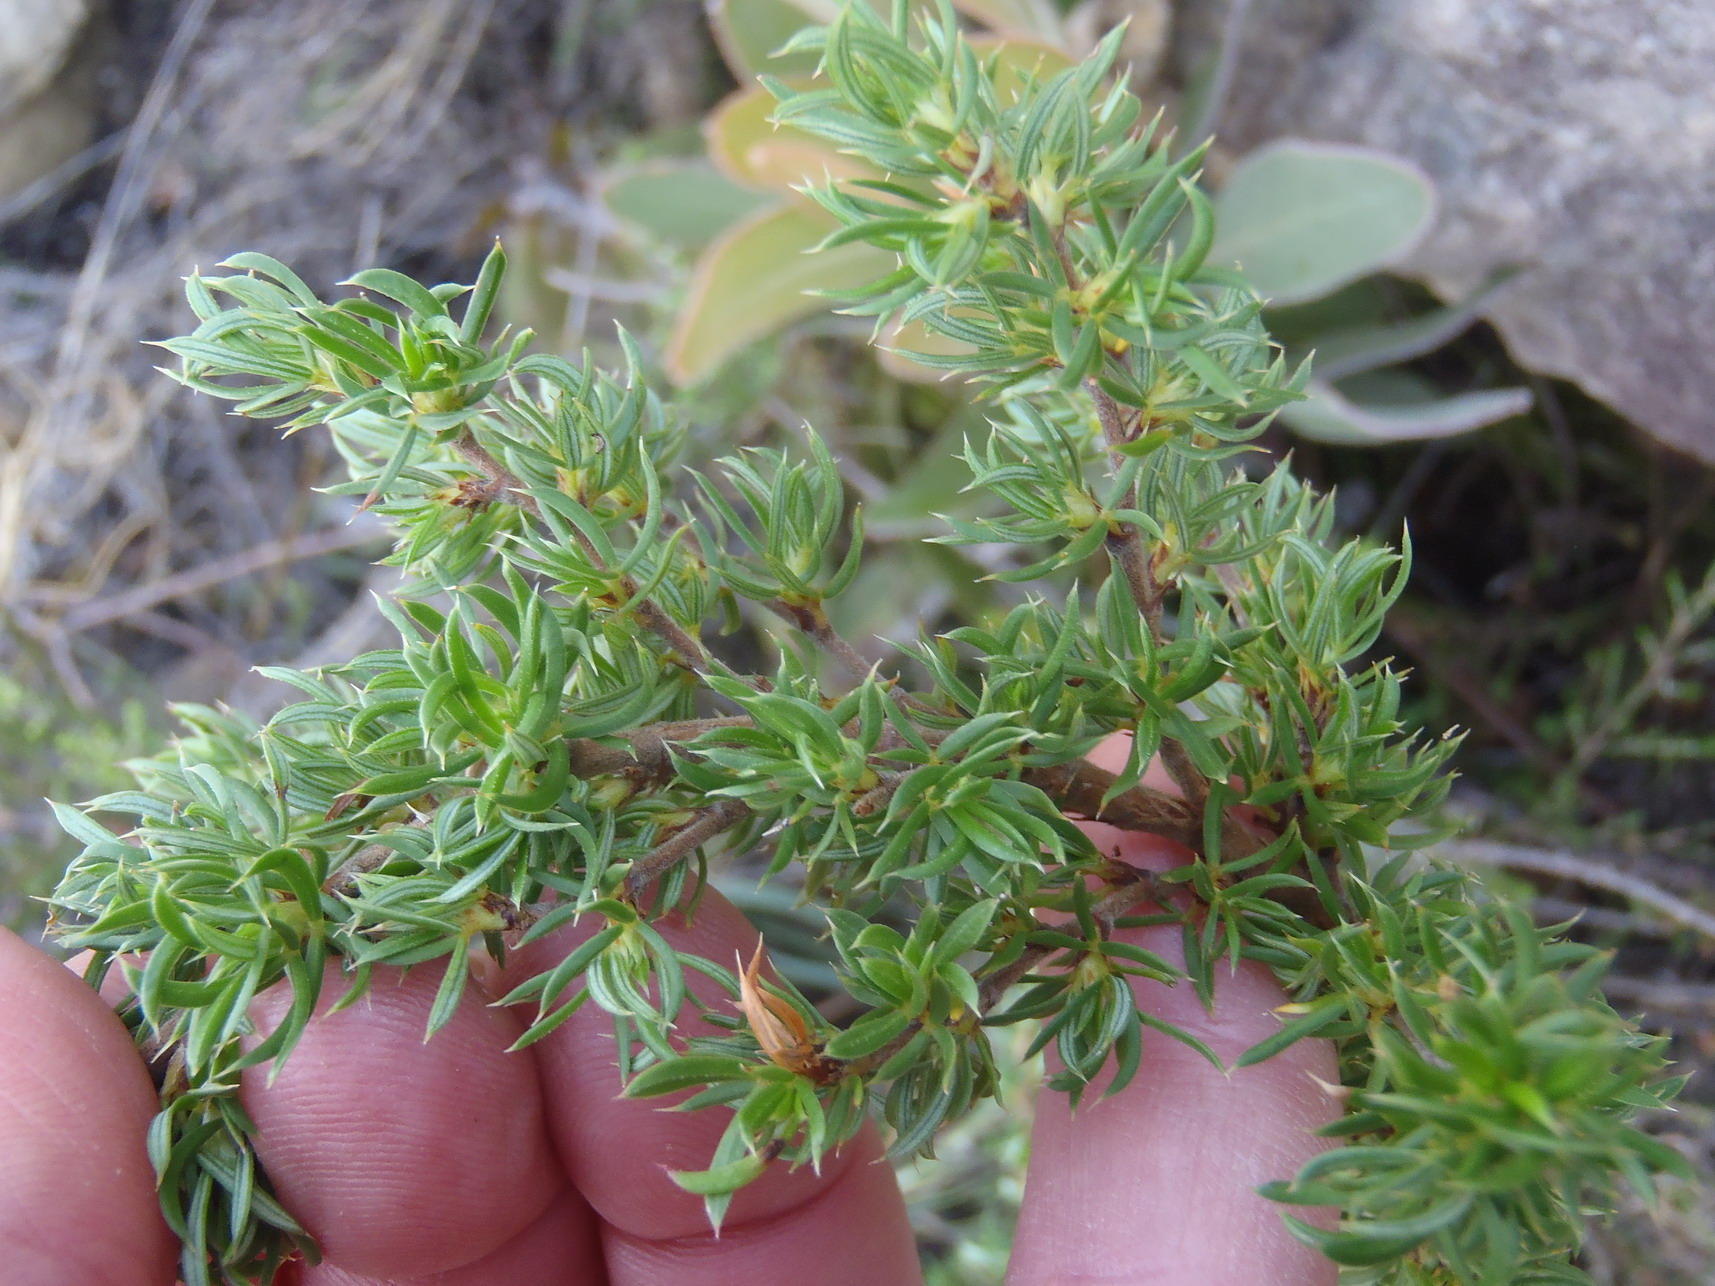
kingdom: Plantae
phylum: Tracheophyta
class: Magnoliopsida
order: Rosales
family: Rosaceae
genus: Cliffortia
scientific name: Cliffortia arcuata
